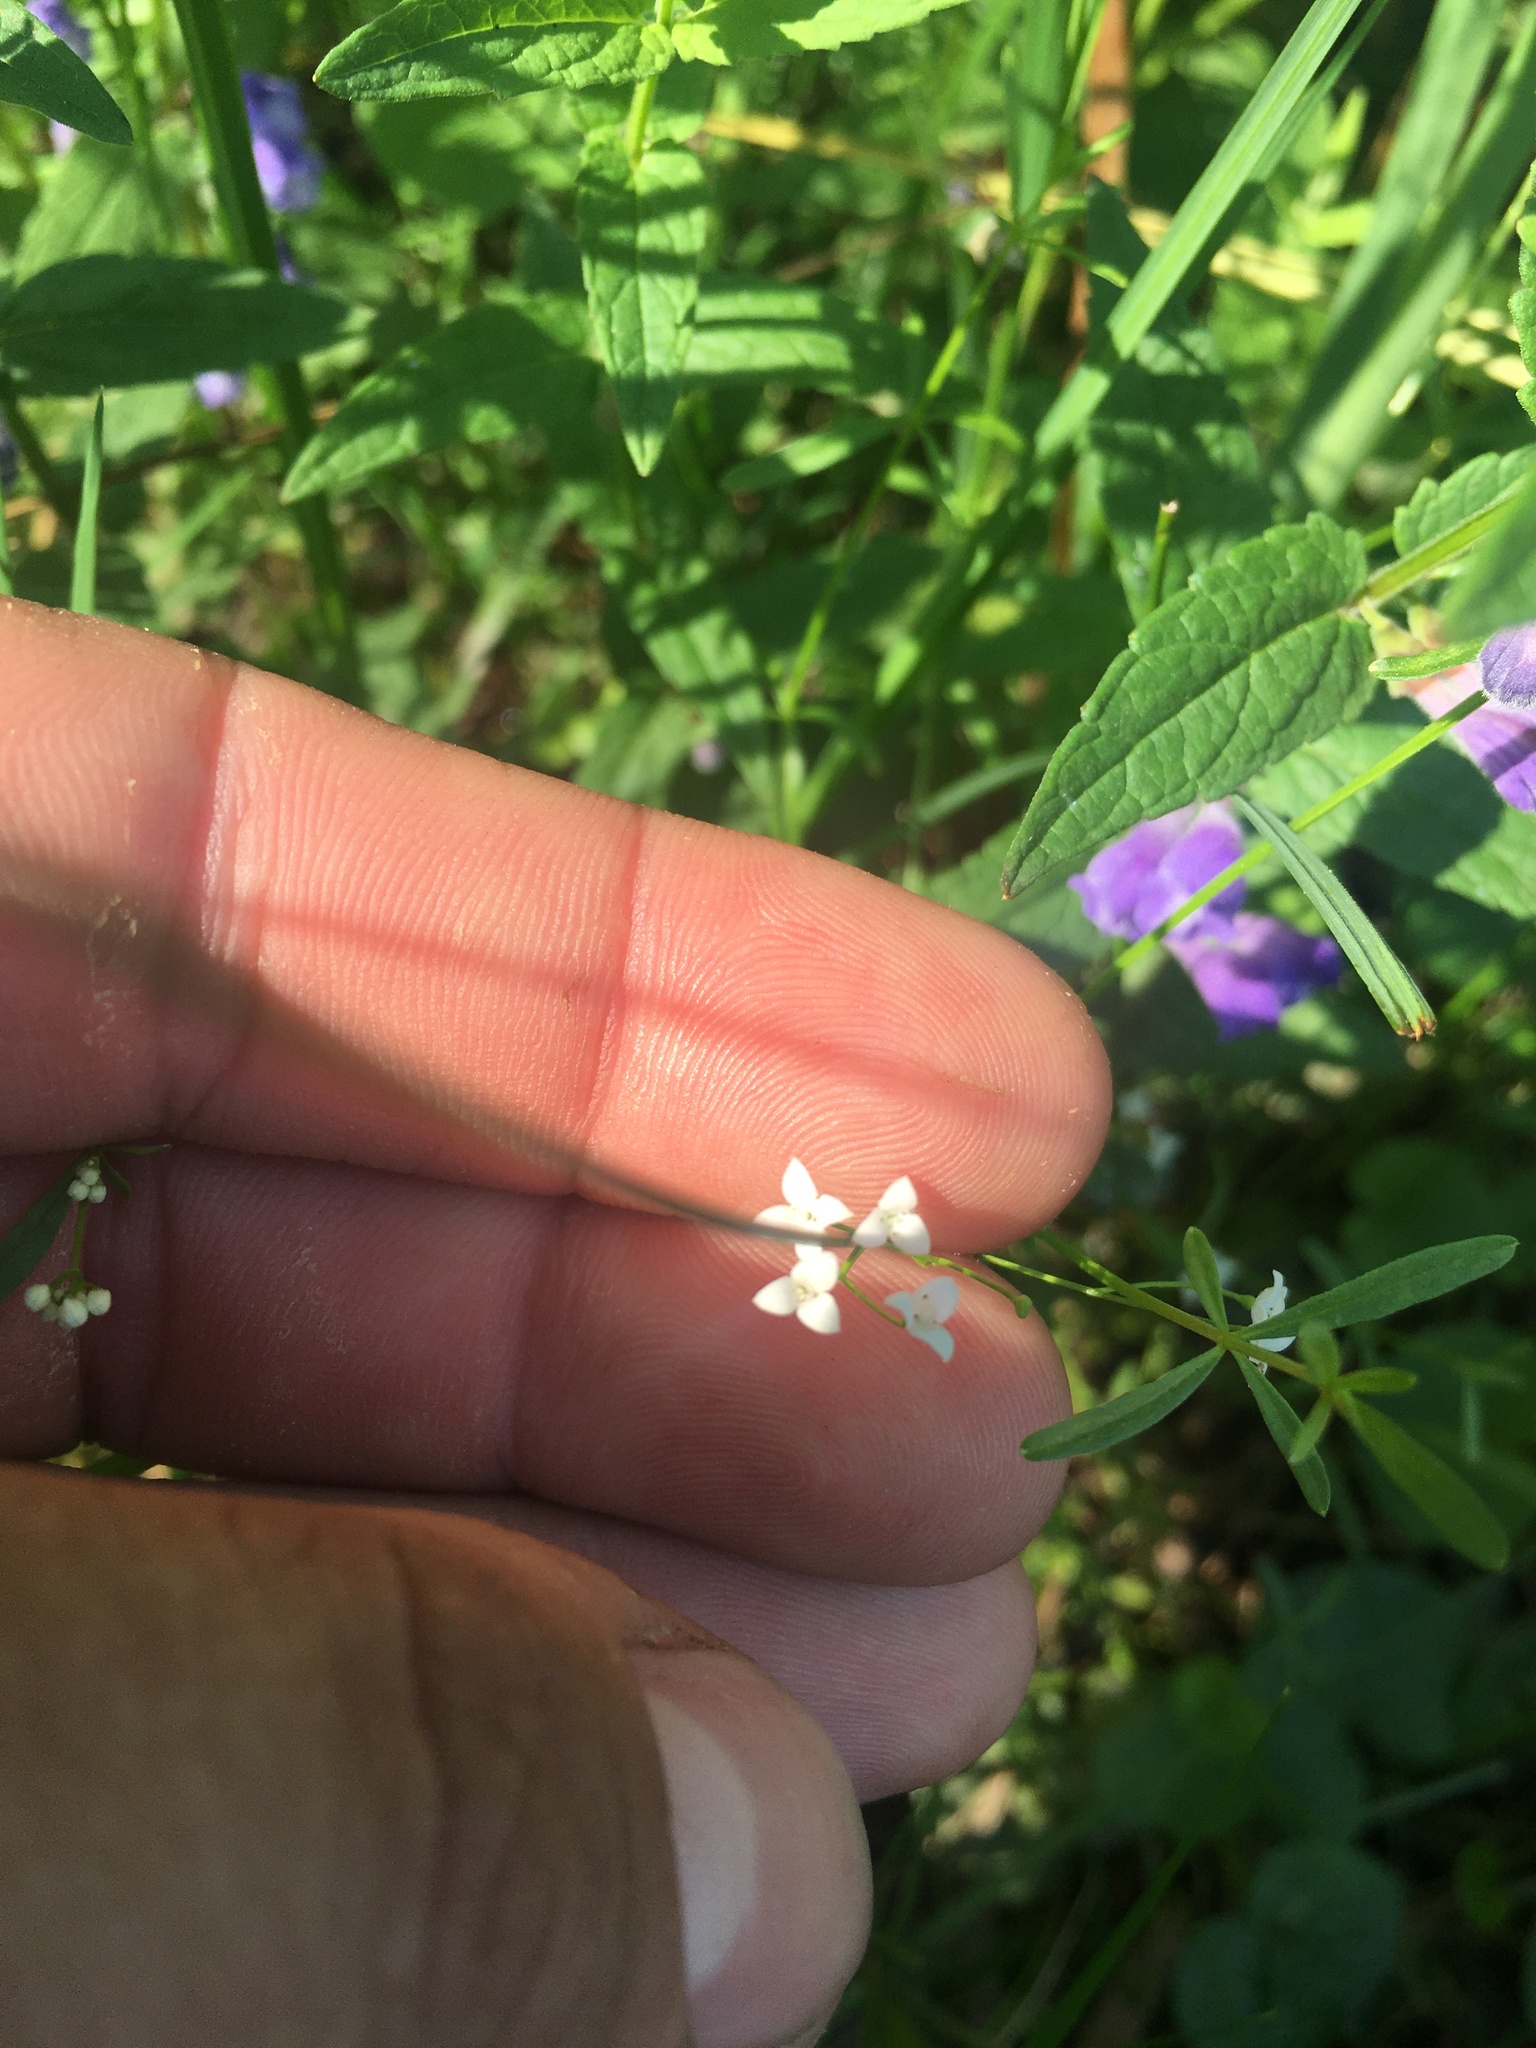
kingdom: Plantae
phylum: Tracheophyta
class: Magnoliopsida
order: Gentianales
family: Rubiaceae
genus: Galium
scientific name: Galium palustre
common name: Common marsh-bedstraw
